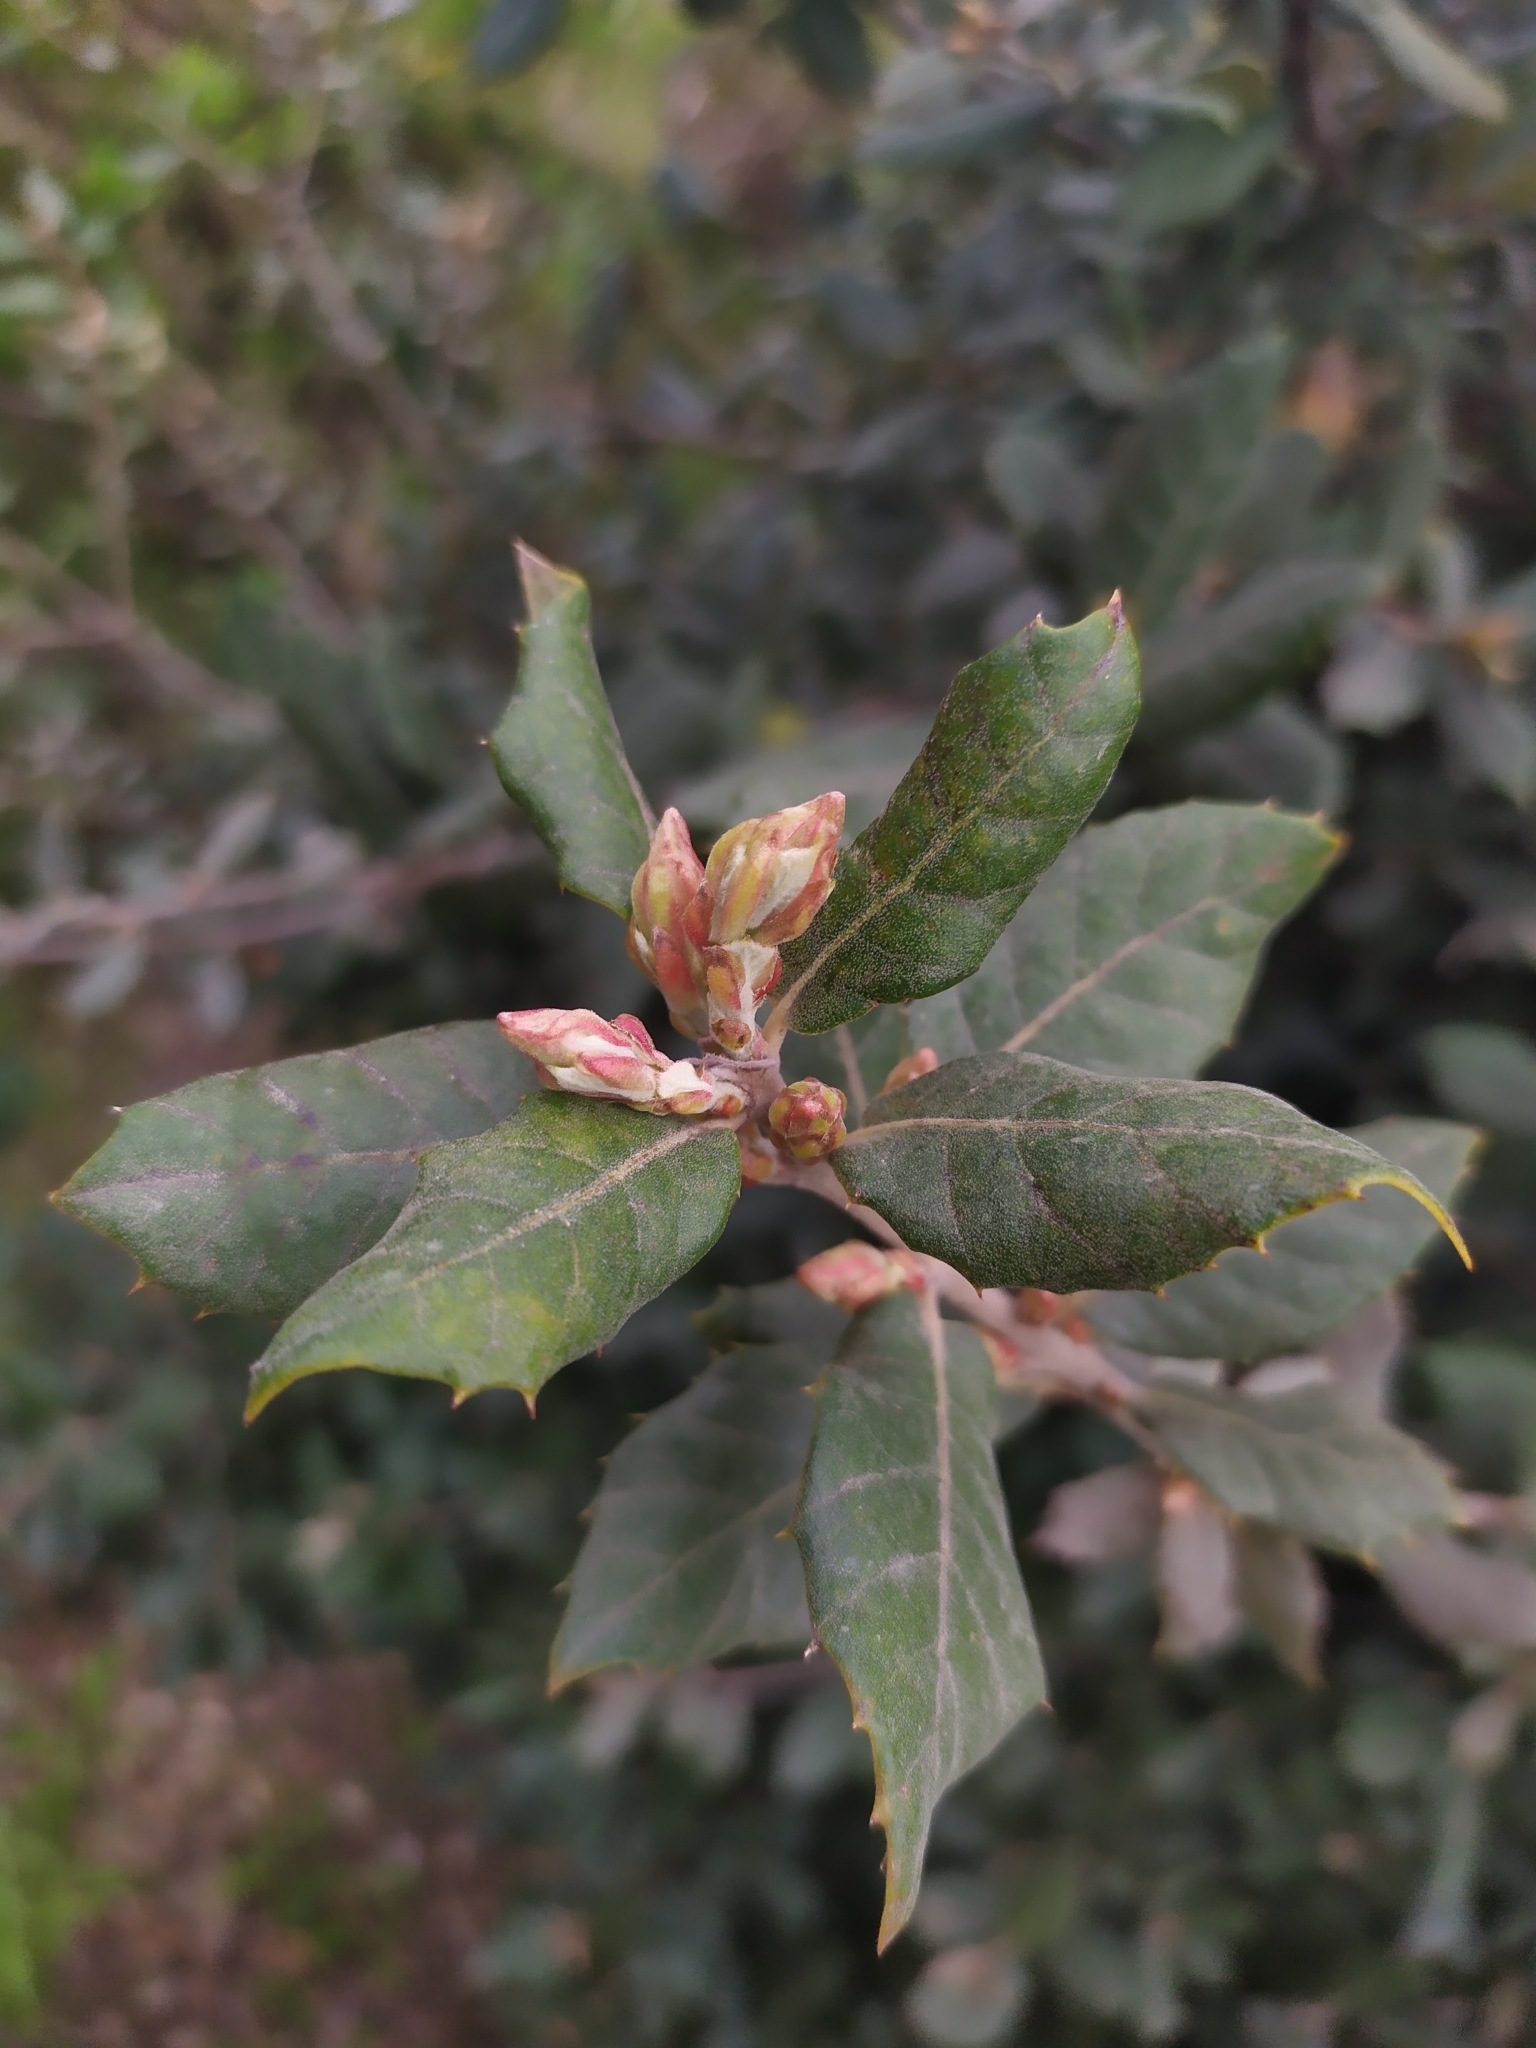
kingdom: Plantae
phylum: Tracheophyta
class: Magnoliopsida
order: Fagales
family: Fagaceae
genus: Quercus
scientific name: Quercus ilex
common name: Evergreen oak
